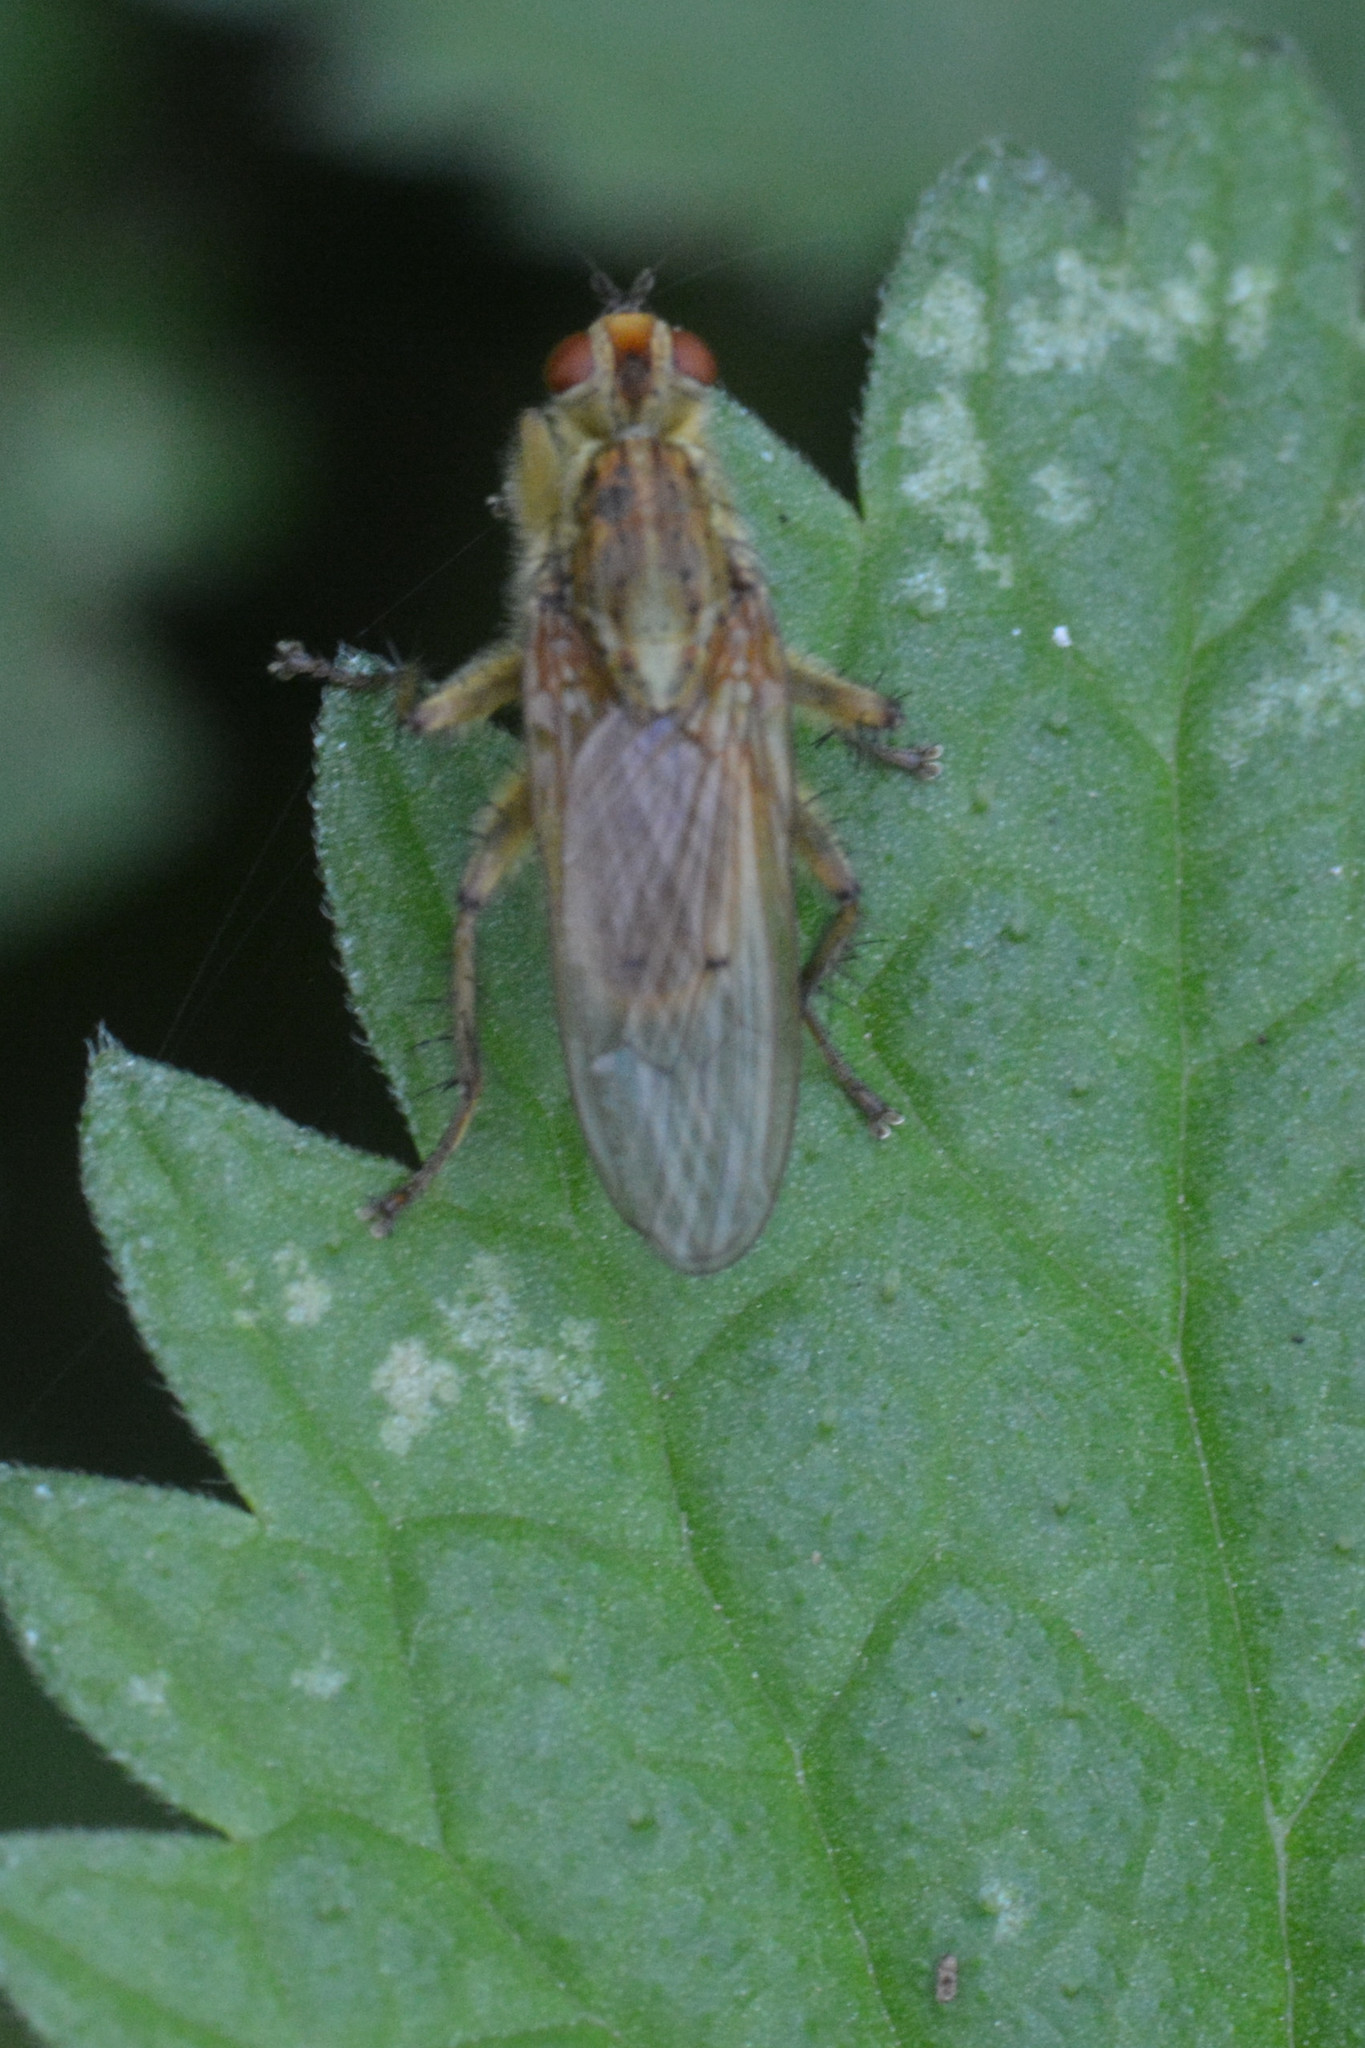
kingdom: Animalia
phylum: Arthropoda
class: Insecta
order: Diptera
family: Scathophagidae
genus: Scathophaga
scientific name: Scathophaga stercoraria
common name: Yellow dung fly
